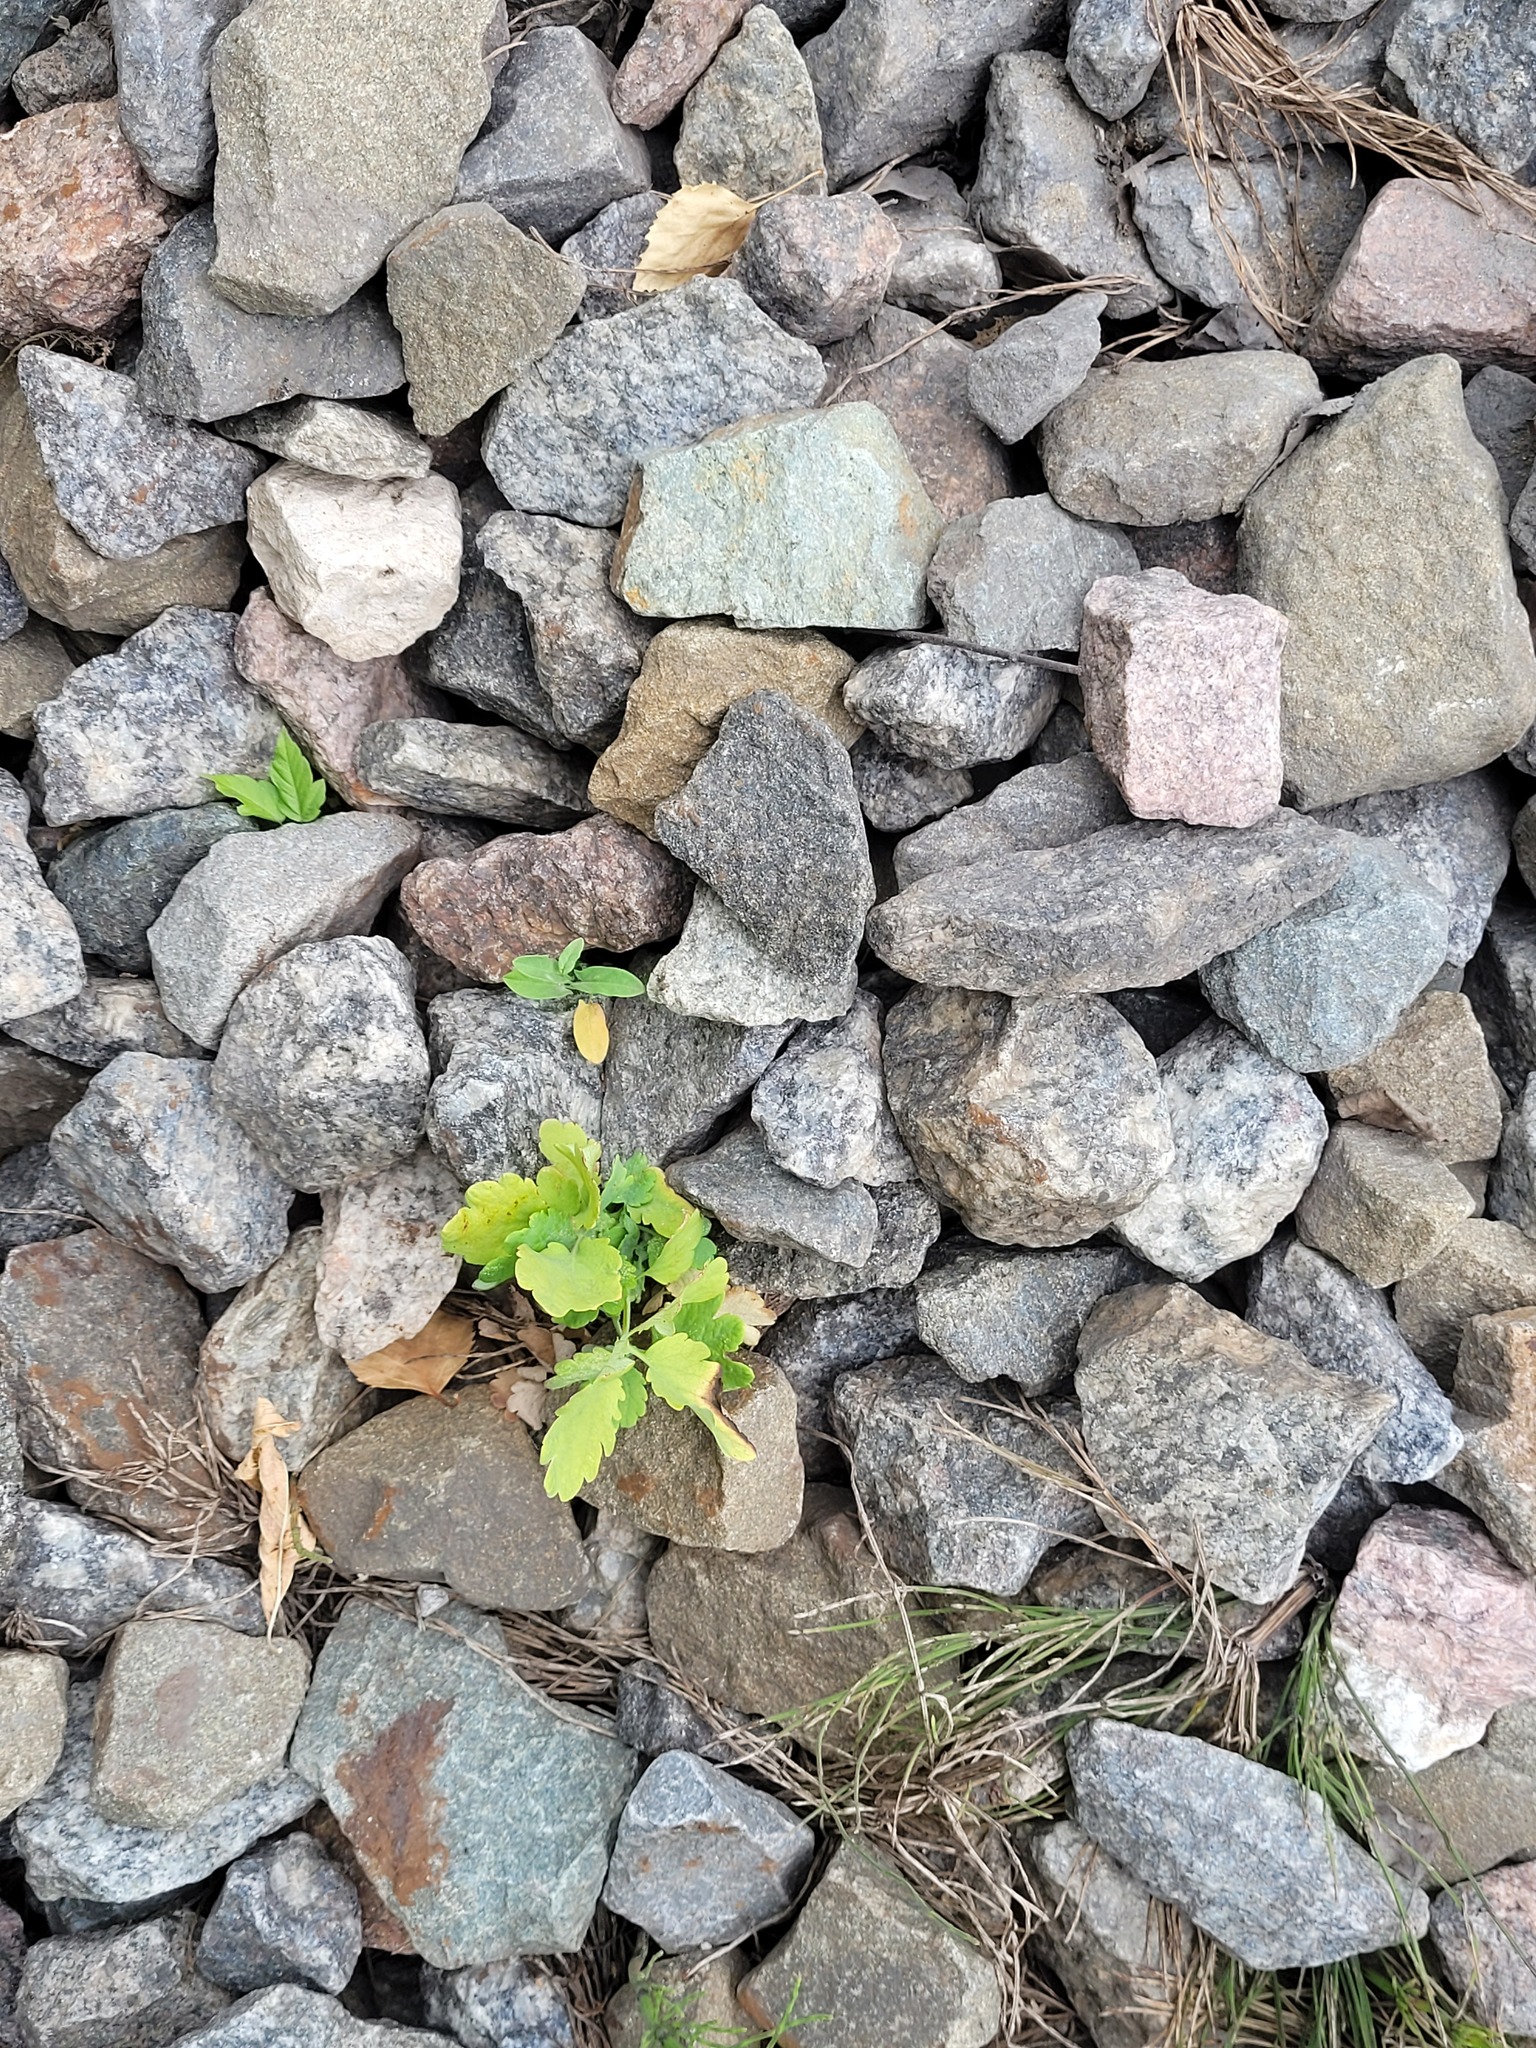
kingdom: Plantae
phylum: Tracheophyta
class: Magnoliopsida
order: Ranunculales
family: Papaveraceae
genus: Chelidonium
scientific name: Chelidonium majus
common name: Greater celandine
